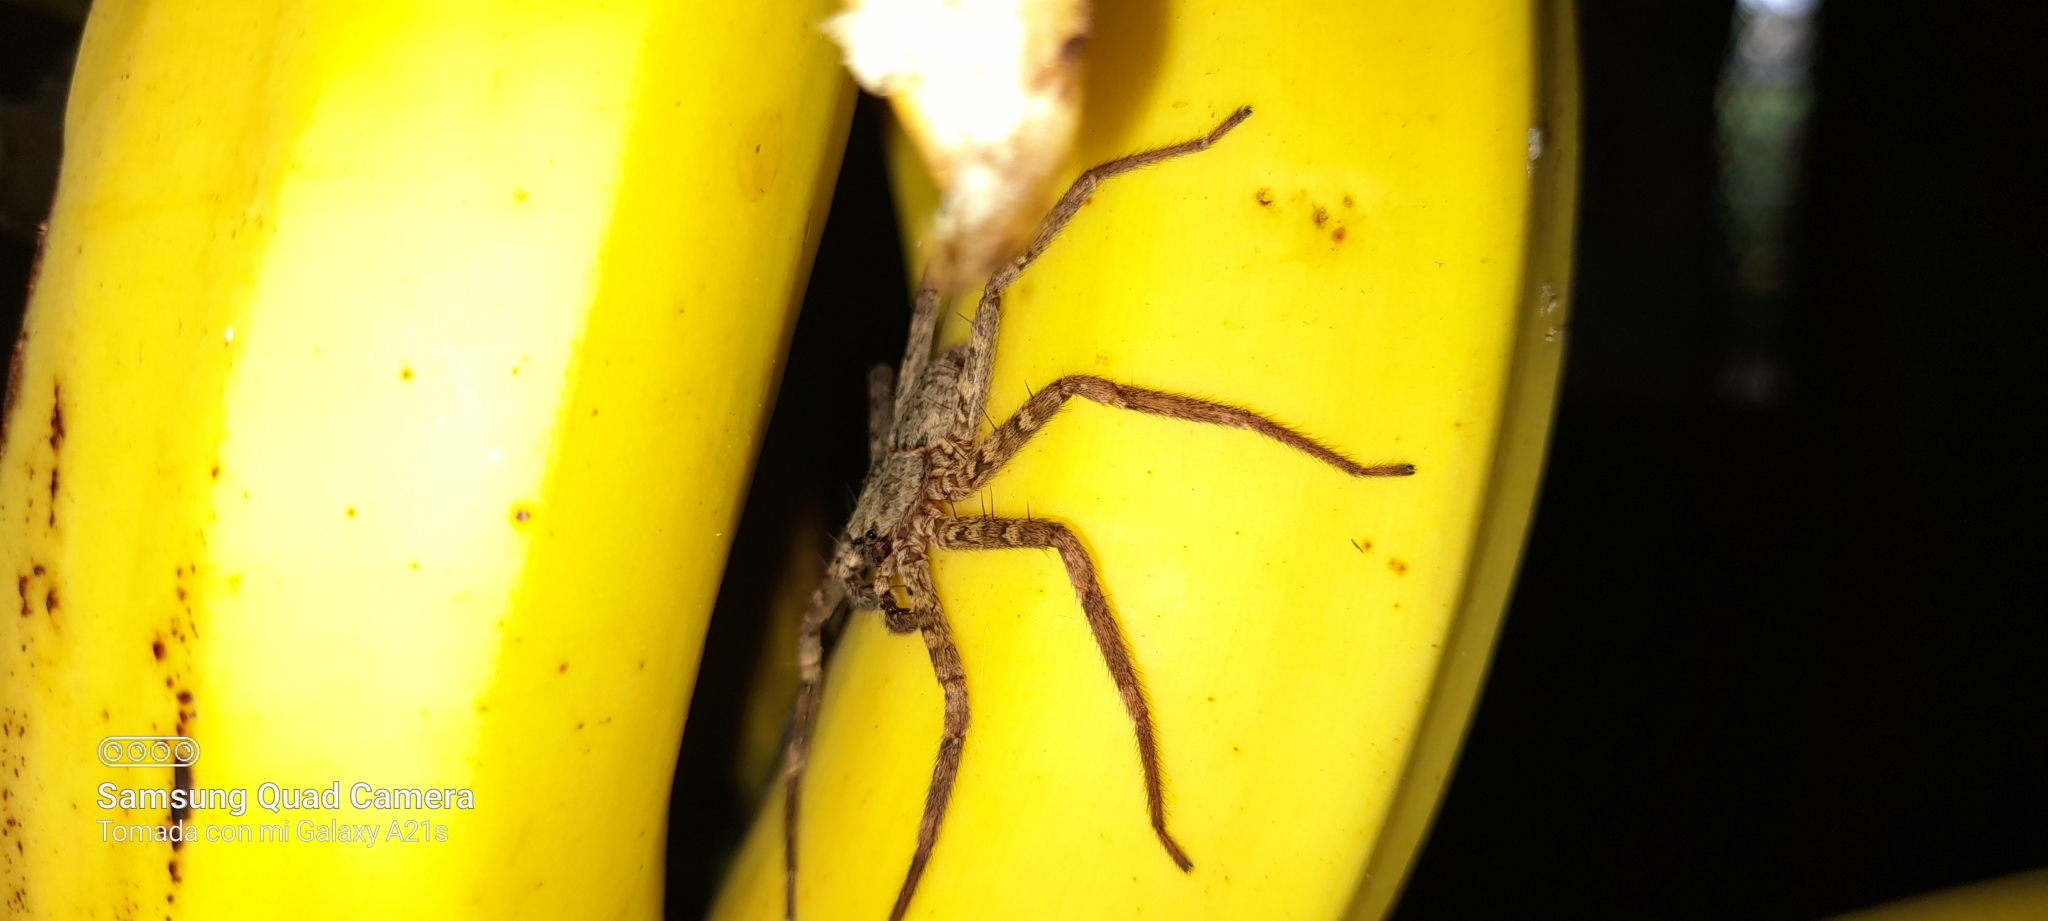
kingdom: Animalia
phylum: Arthropoda
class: Arachnida
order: Araneae
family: Selenopidae
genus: Selenops
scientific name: Selenops mexicanus
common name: Wall crab spiders
